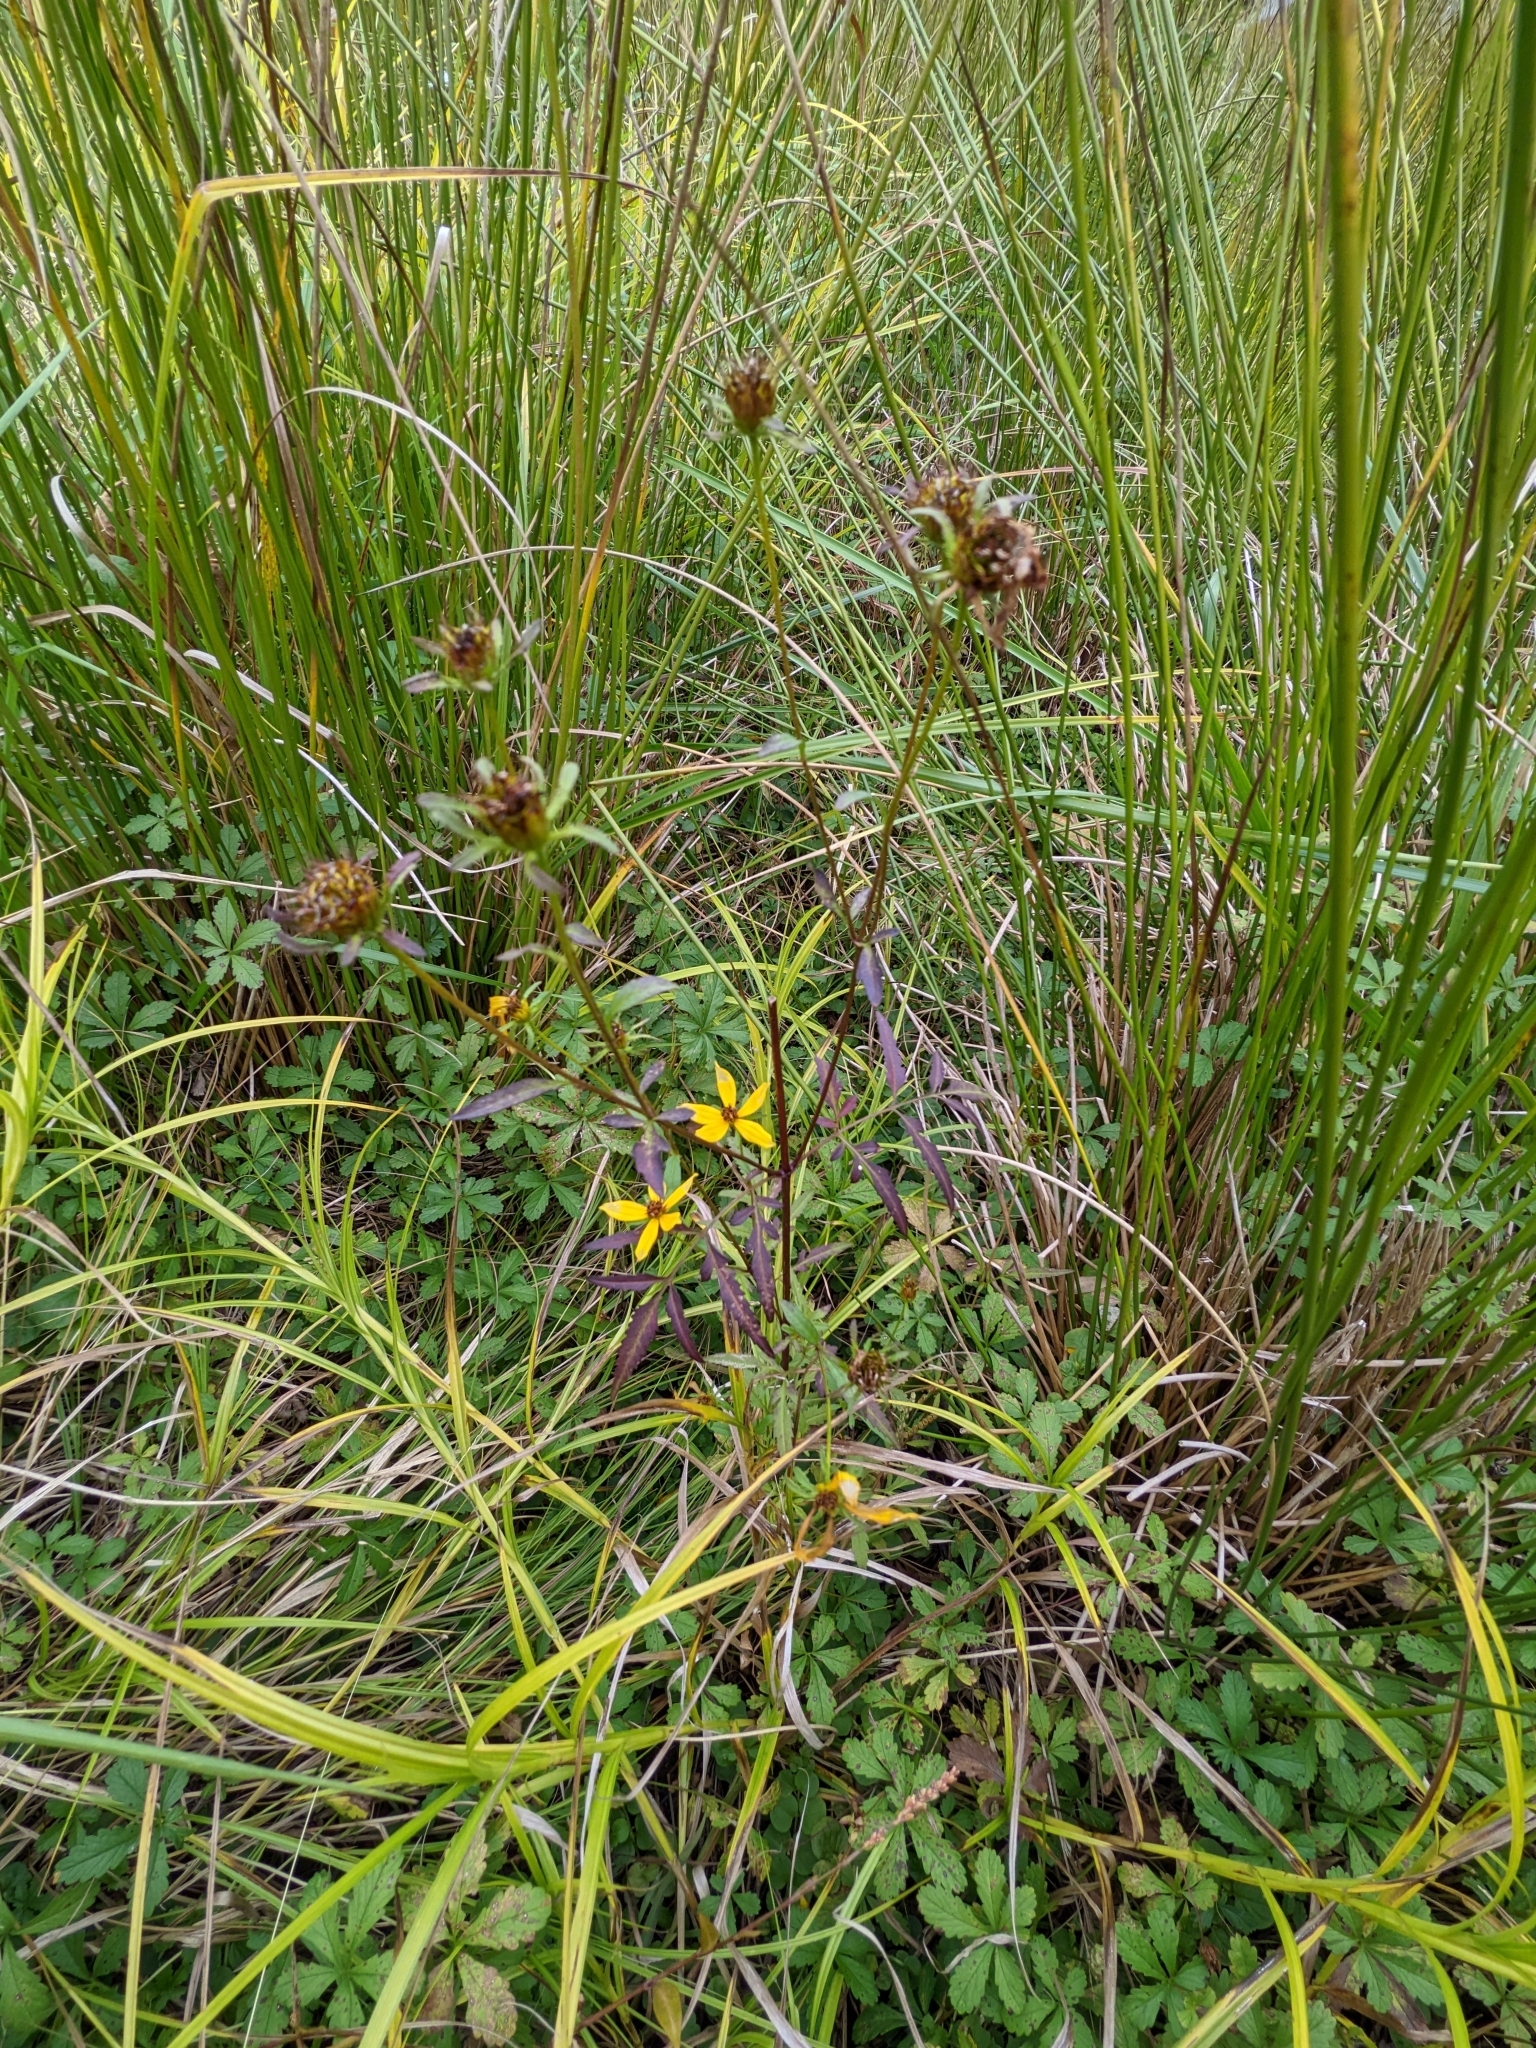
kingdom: Plantae
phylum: Tracheophyta
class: Magnoliopsida
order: Asterales
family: Asteraceae
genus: Bidens
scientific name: Bidens polylepis
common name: Awnless beggarticks
